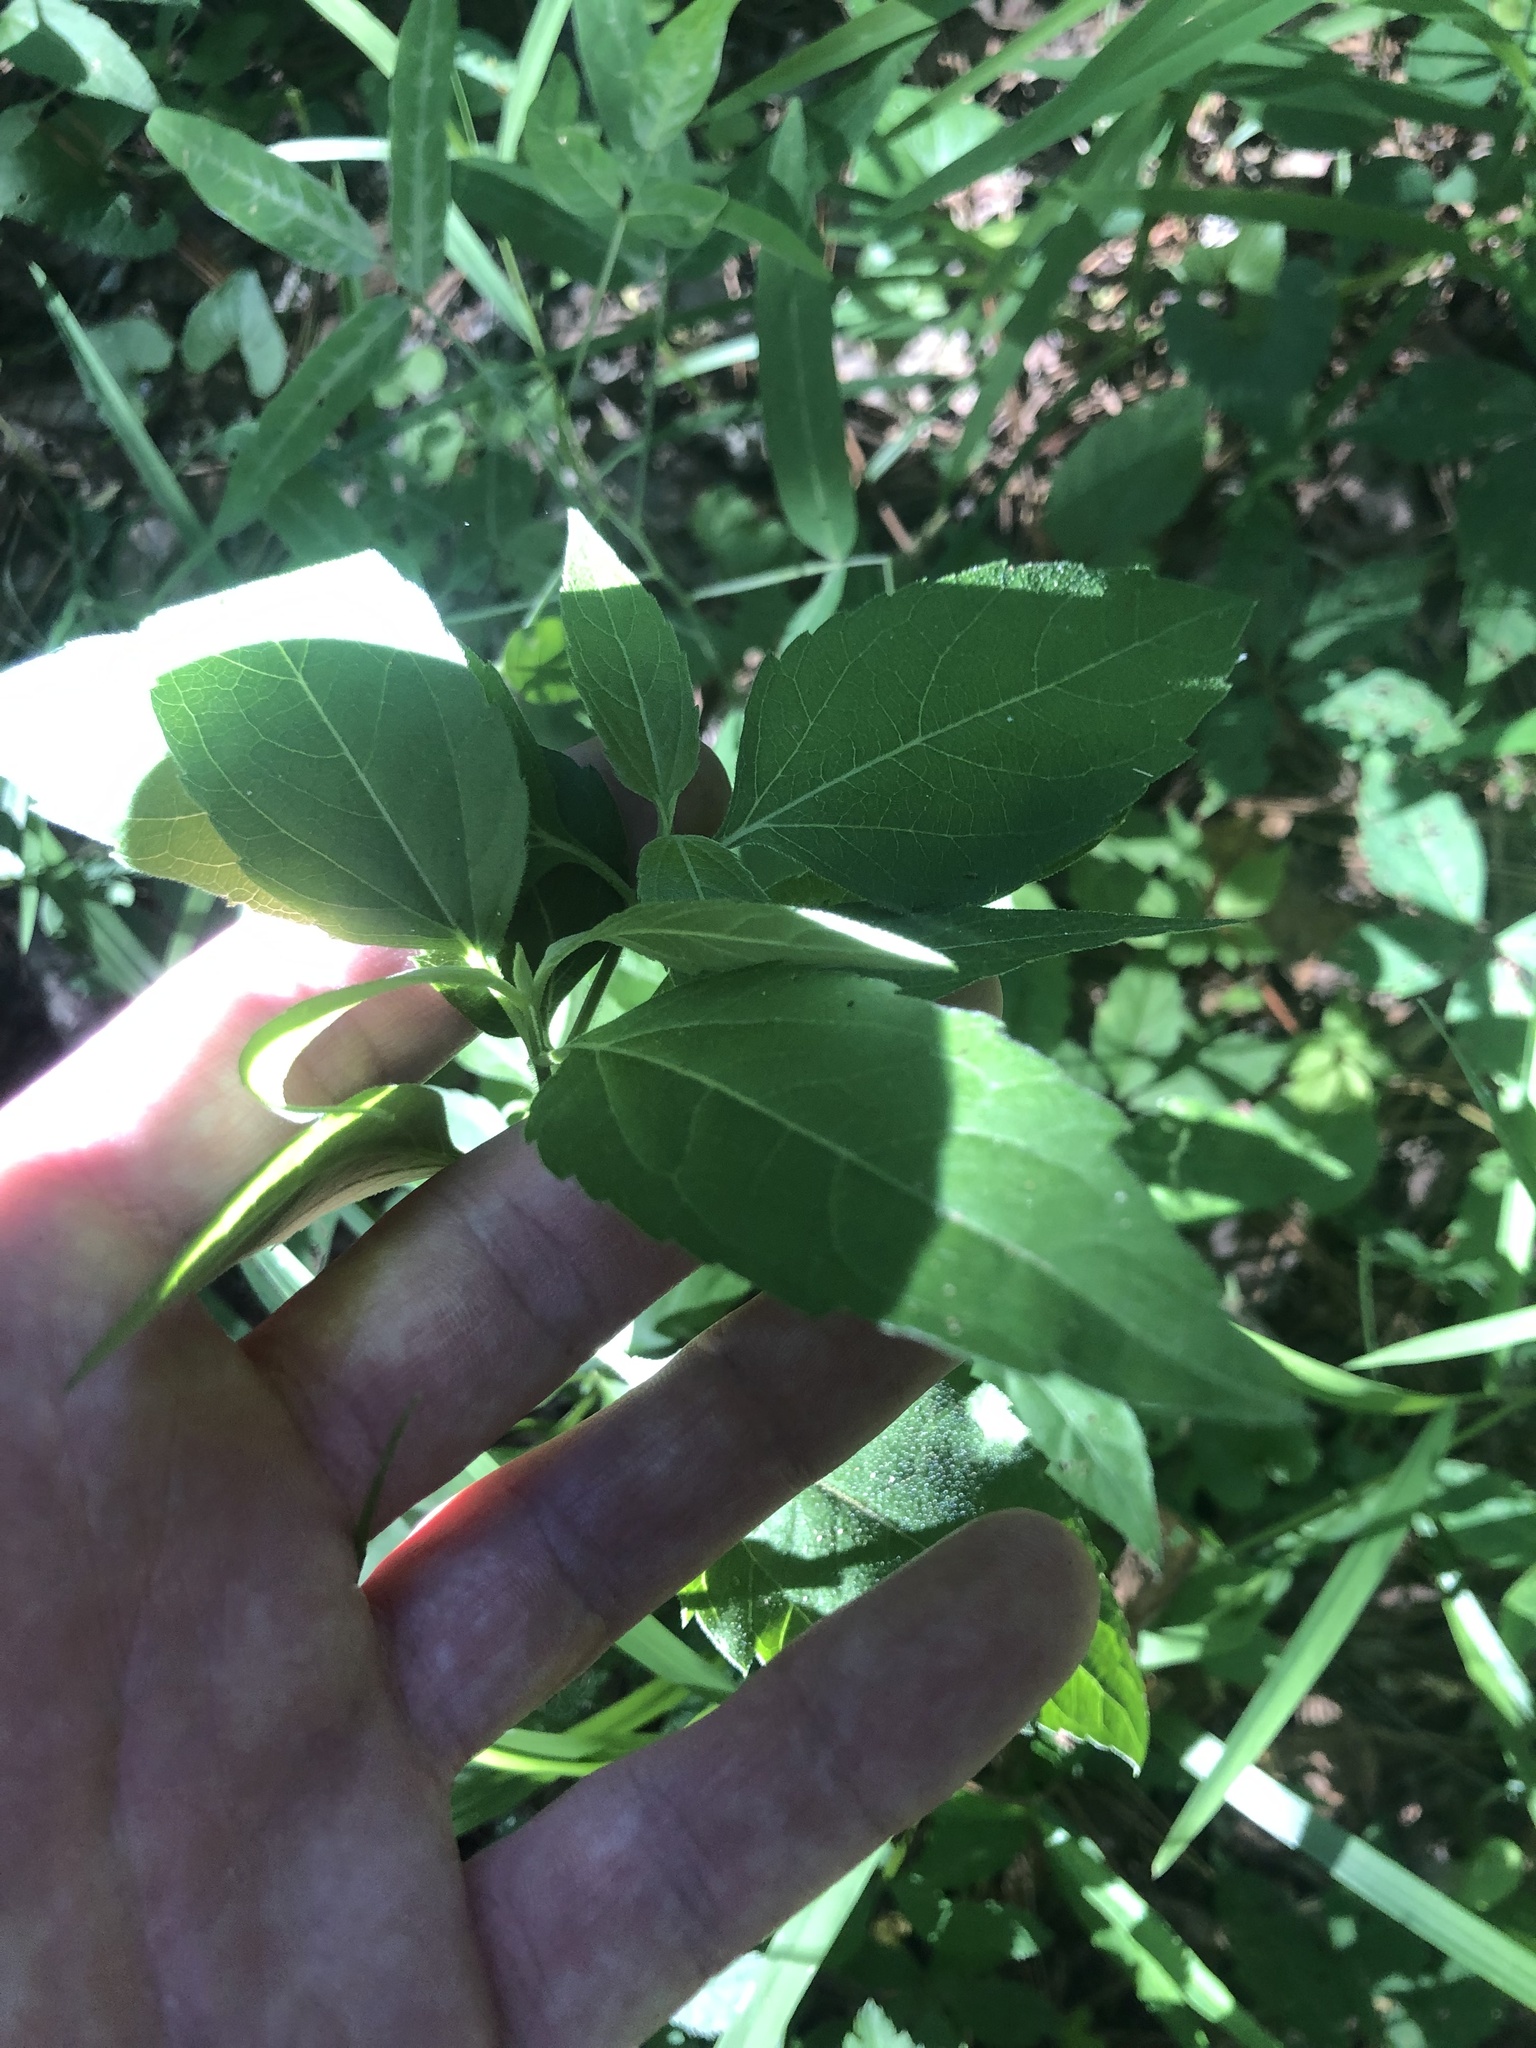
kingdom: Plantae
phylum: Tracheophyta
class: Magnoliopsida
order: Asterales
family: Asteraceae
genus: Heliopsis
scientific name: Heliopsis gracilis
